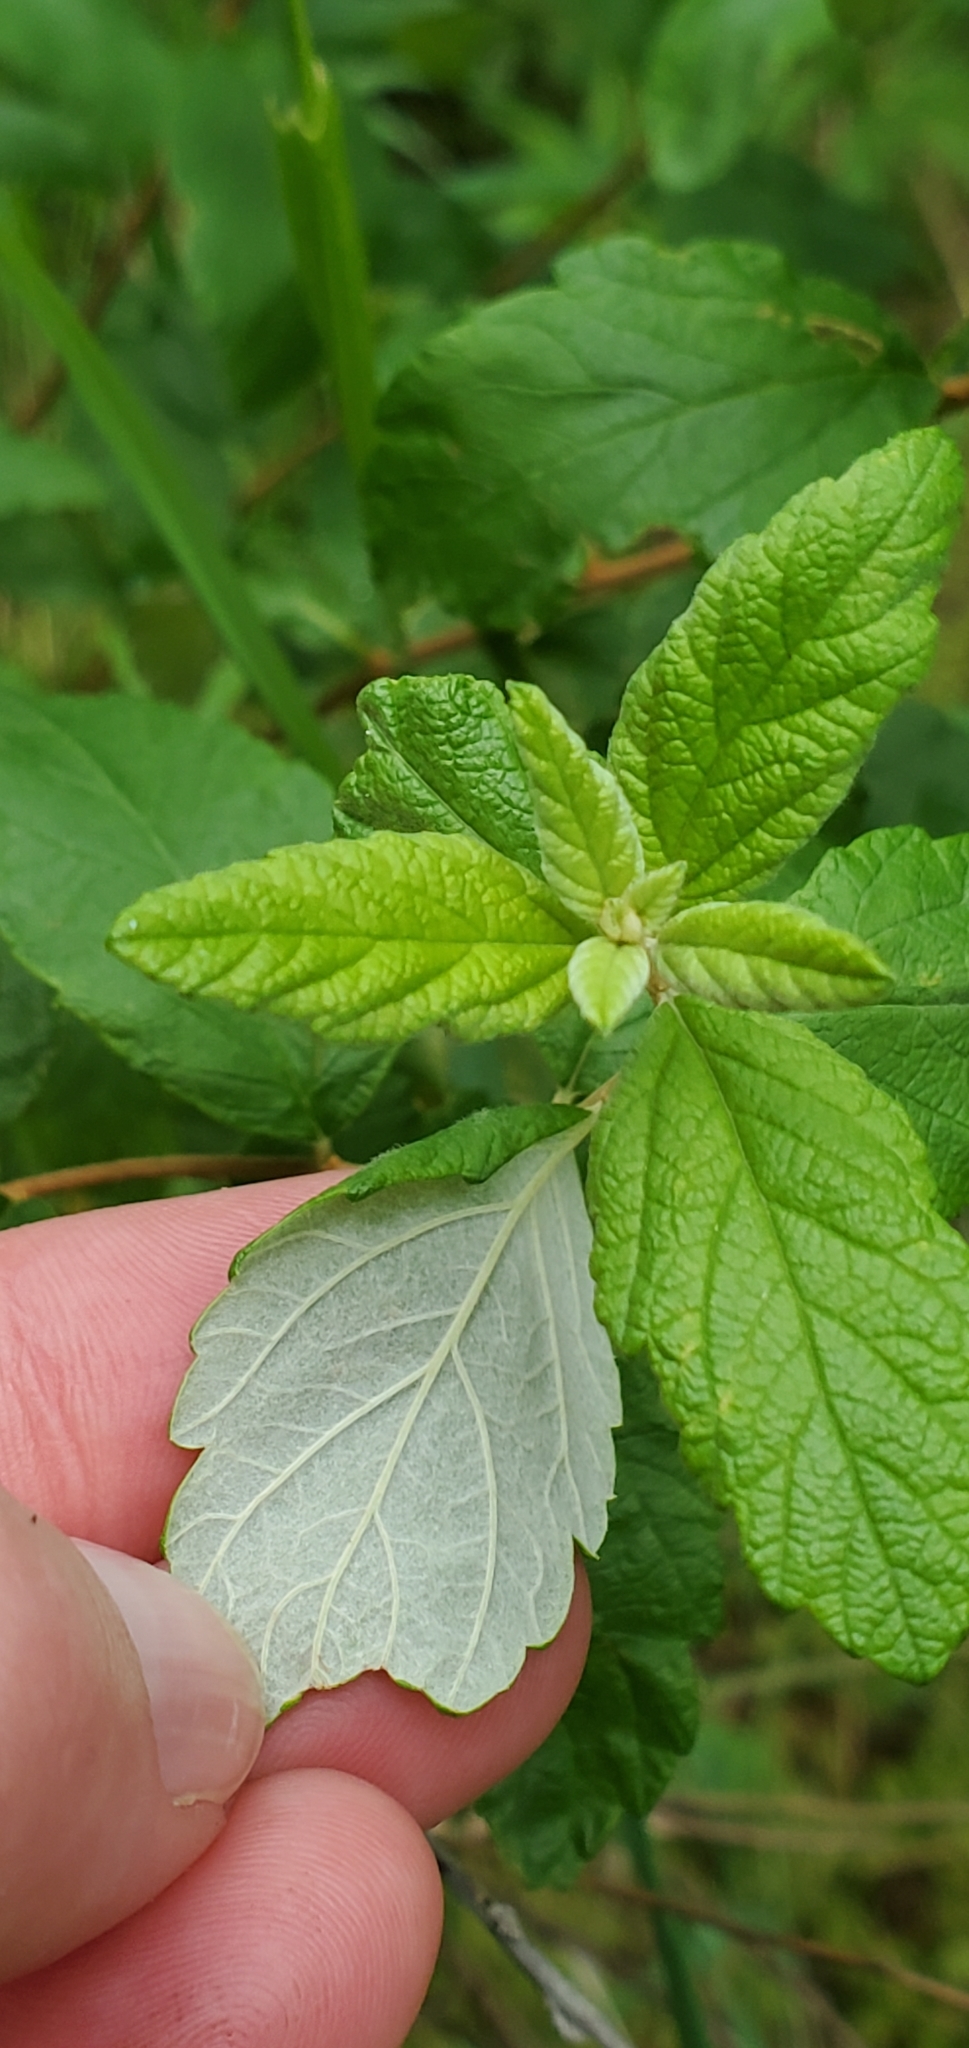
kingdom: Plantae
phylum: Tracheophyta
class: Magnoliopsida
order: Rosales
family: Rosaceae
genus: Spiraea
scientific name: Spiraea tomentosa
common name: Hardhack
